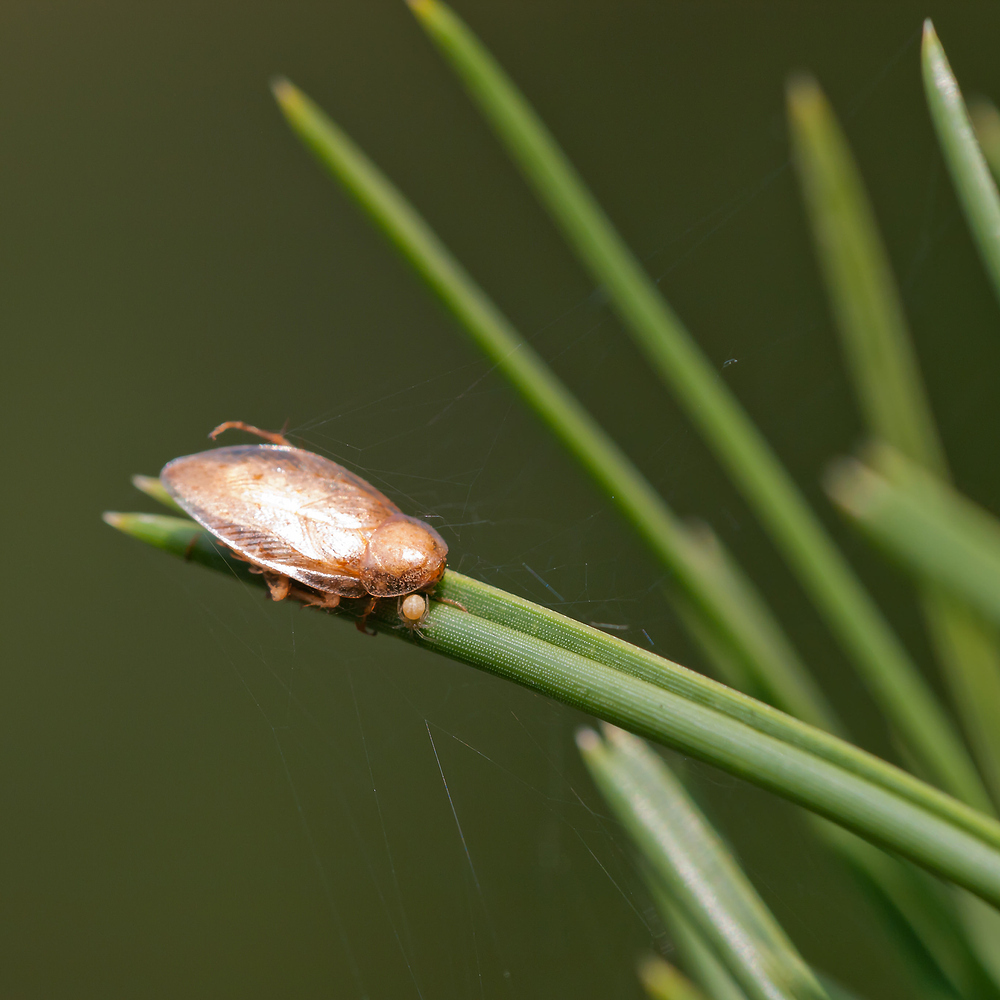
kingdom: Animalia
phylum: Arthropoda
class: Insecta
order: Blattodea
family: Ectobiidae
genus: Ectobius
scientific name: Ectobius pallidus
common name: Tawny cockroach
